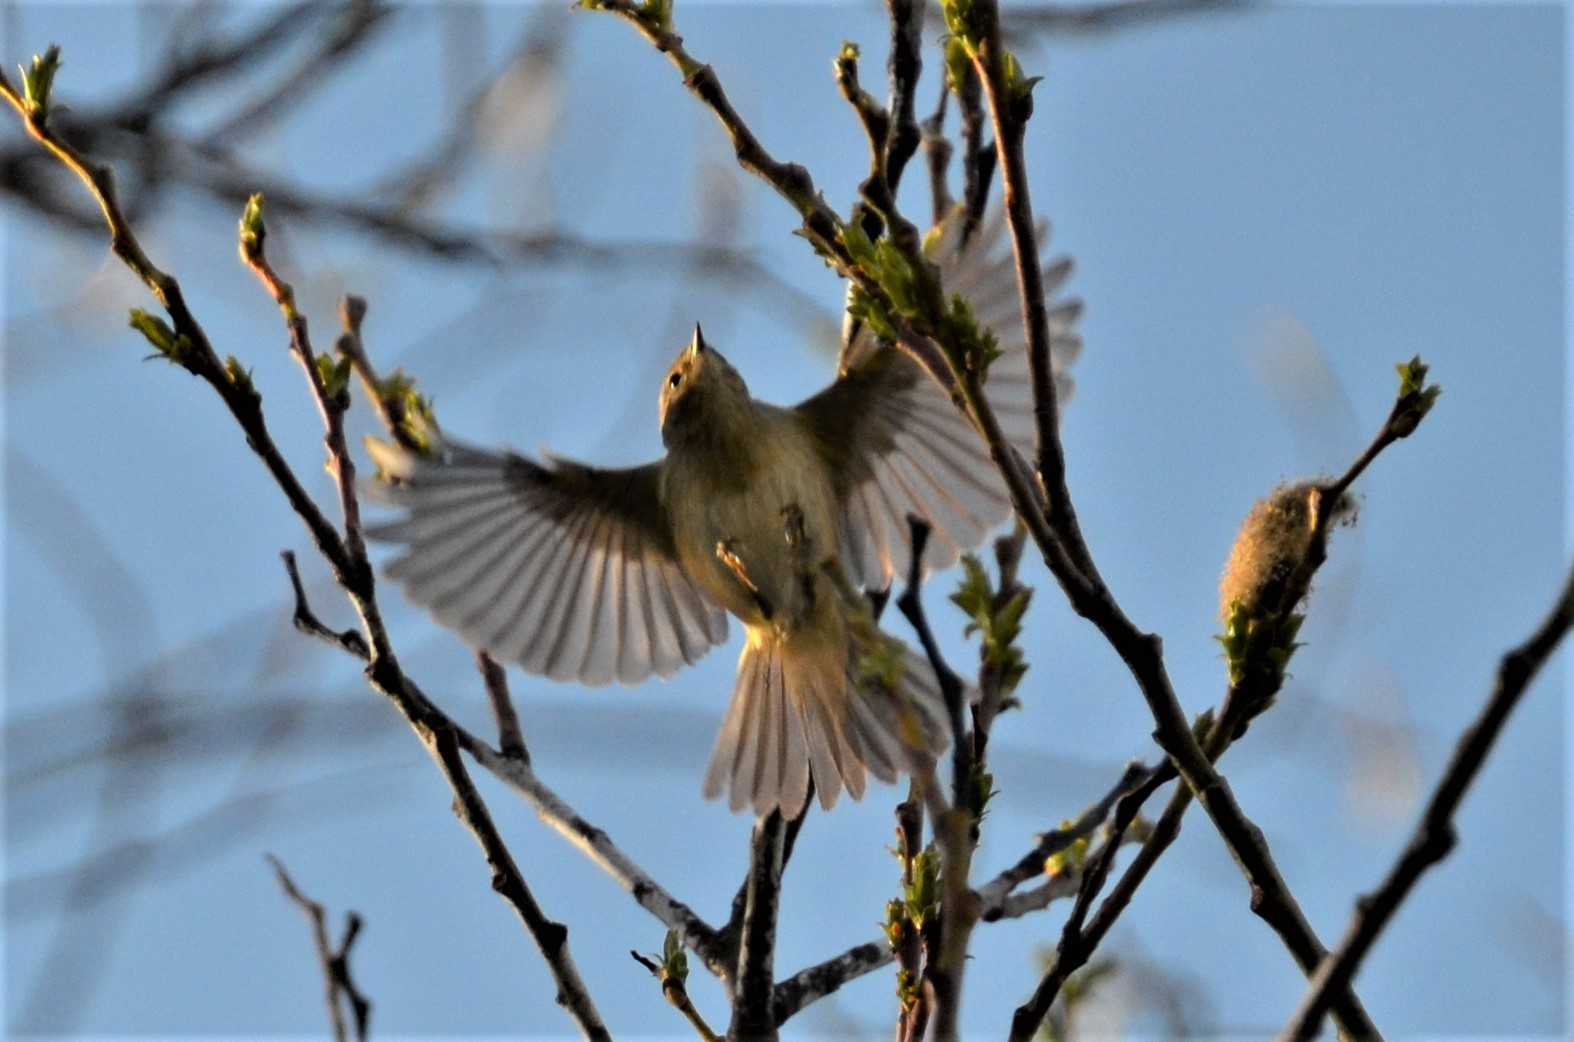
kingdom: Animalia
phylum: Chordata
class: Aves
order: Passeriformes
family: Phylloscopidae
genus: Phylloscopus
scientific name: Phylloscopus collybita
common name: Common chiffchaff
